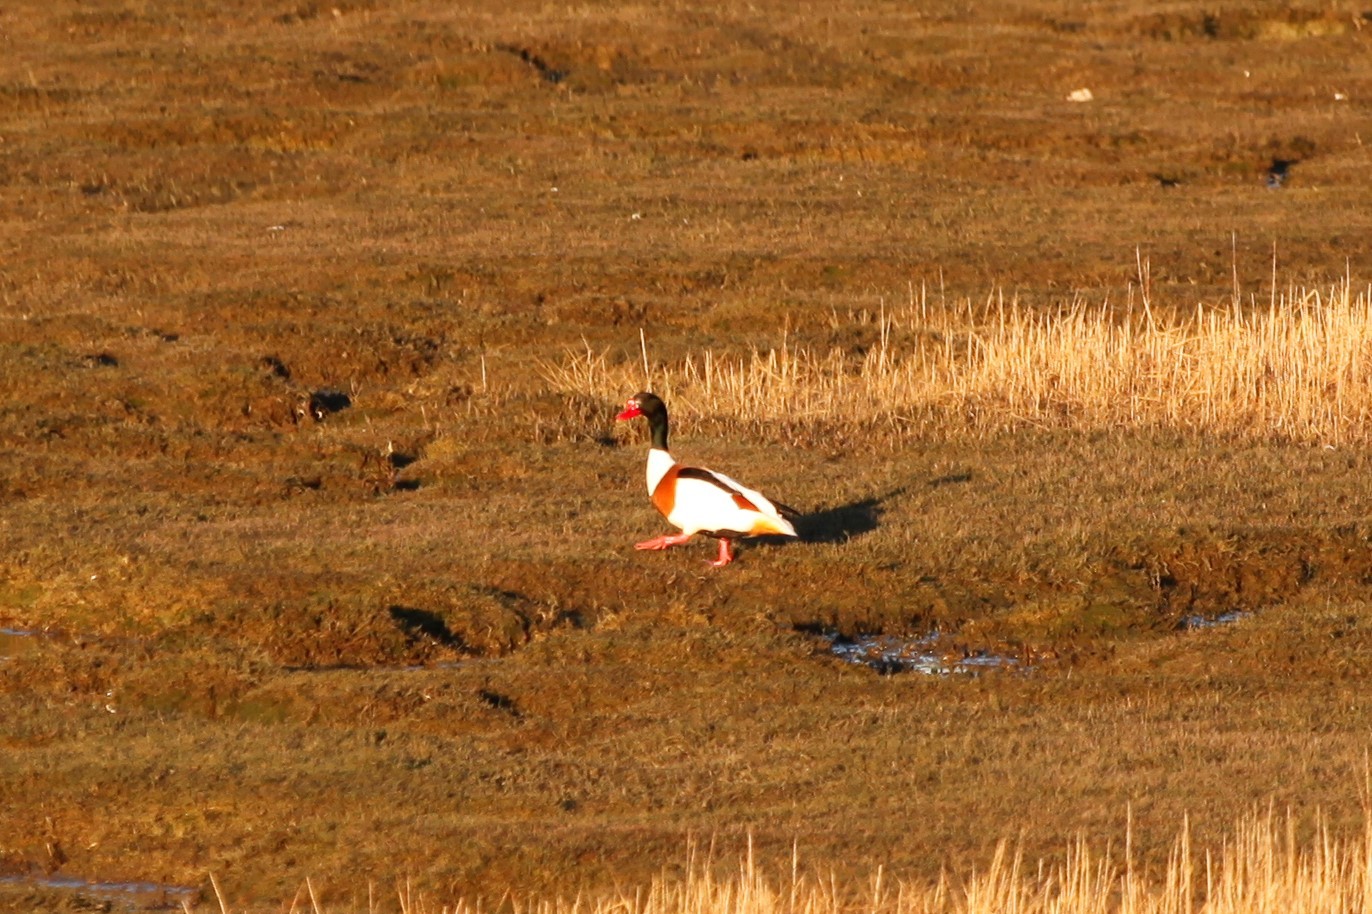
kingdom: Animalia
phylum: Chordata
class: Aves
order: Anseriformes
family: Anatidae
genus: Tadorna
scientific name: Tadorna tadorna
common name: Common shelduck
